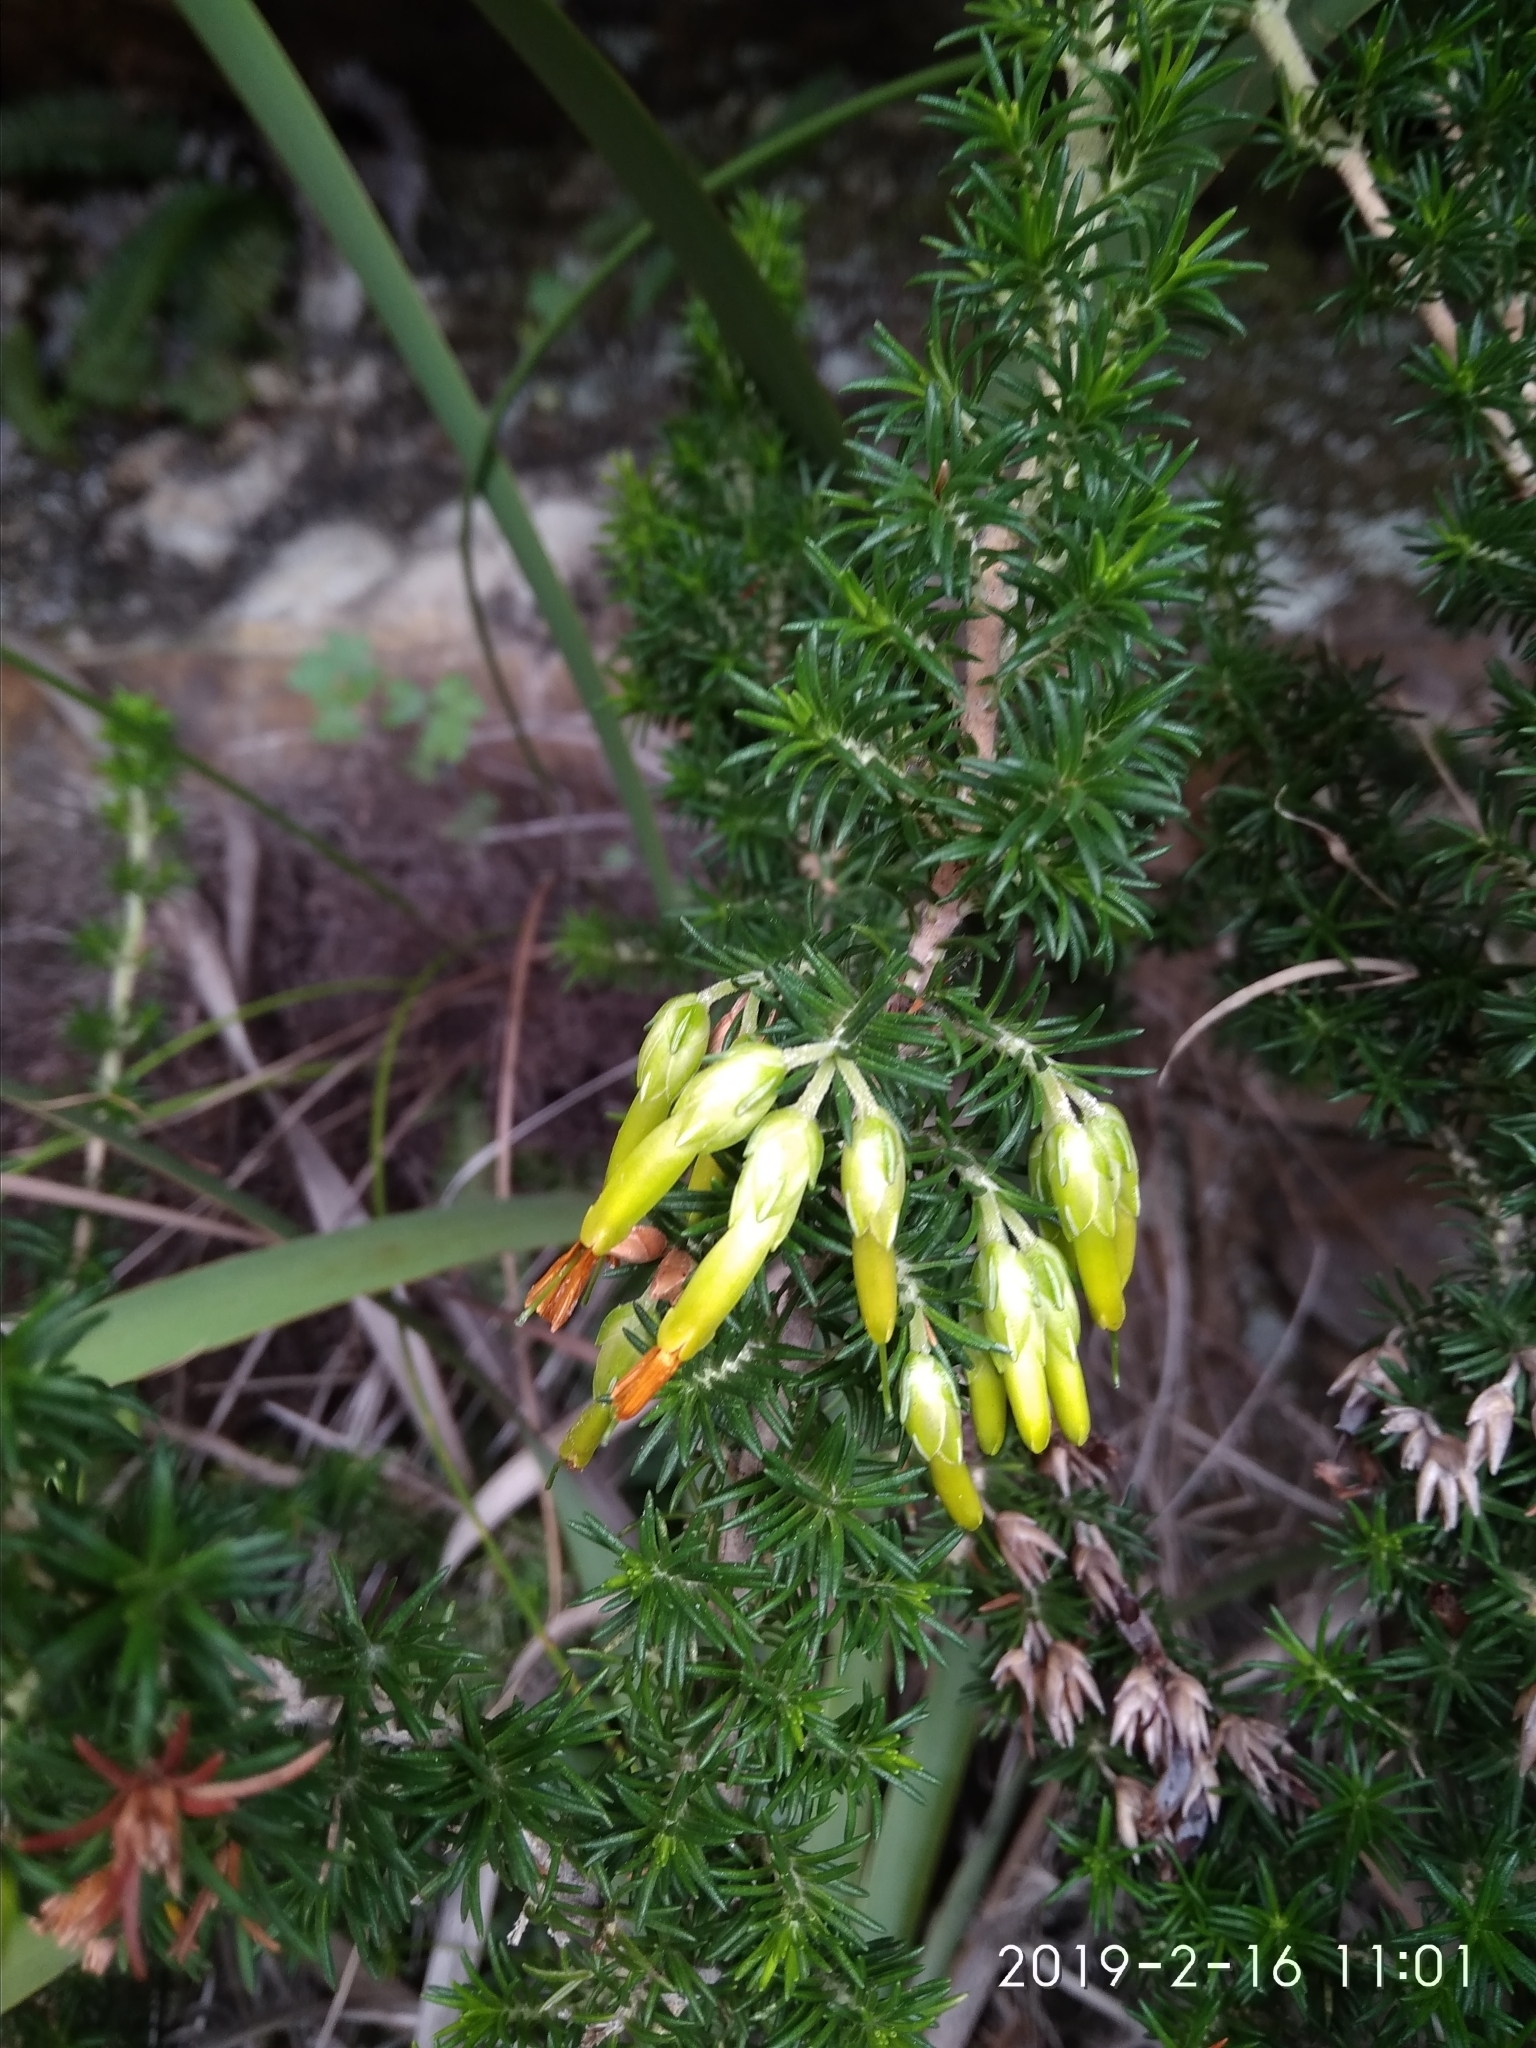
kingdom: Plantae
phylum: Tracheophyta
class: Magnoliopsida
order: Ericales
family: Ericaceae
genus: Erica
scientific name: Erica coccinea
